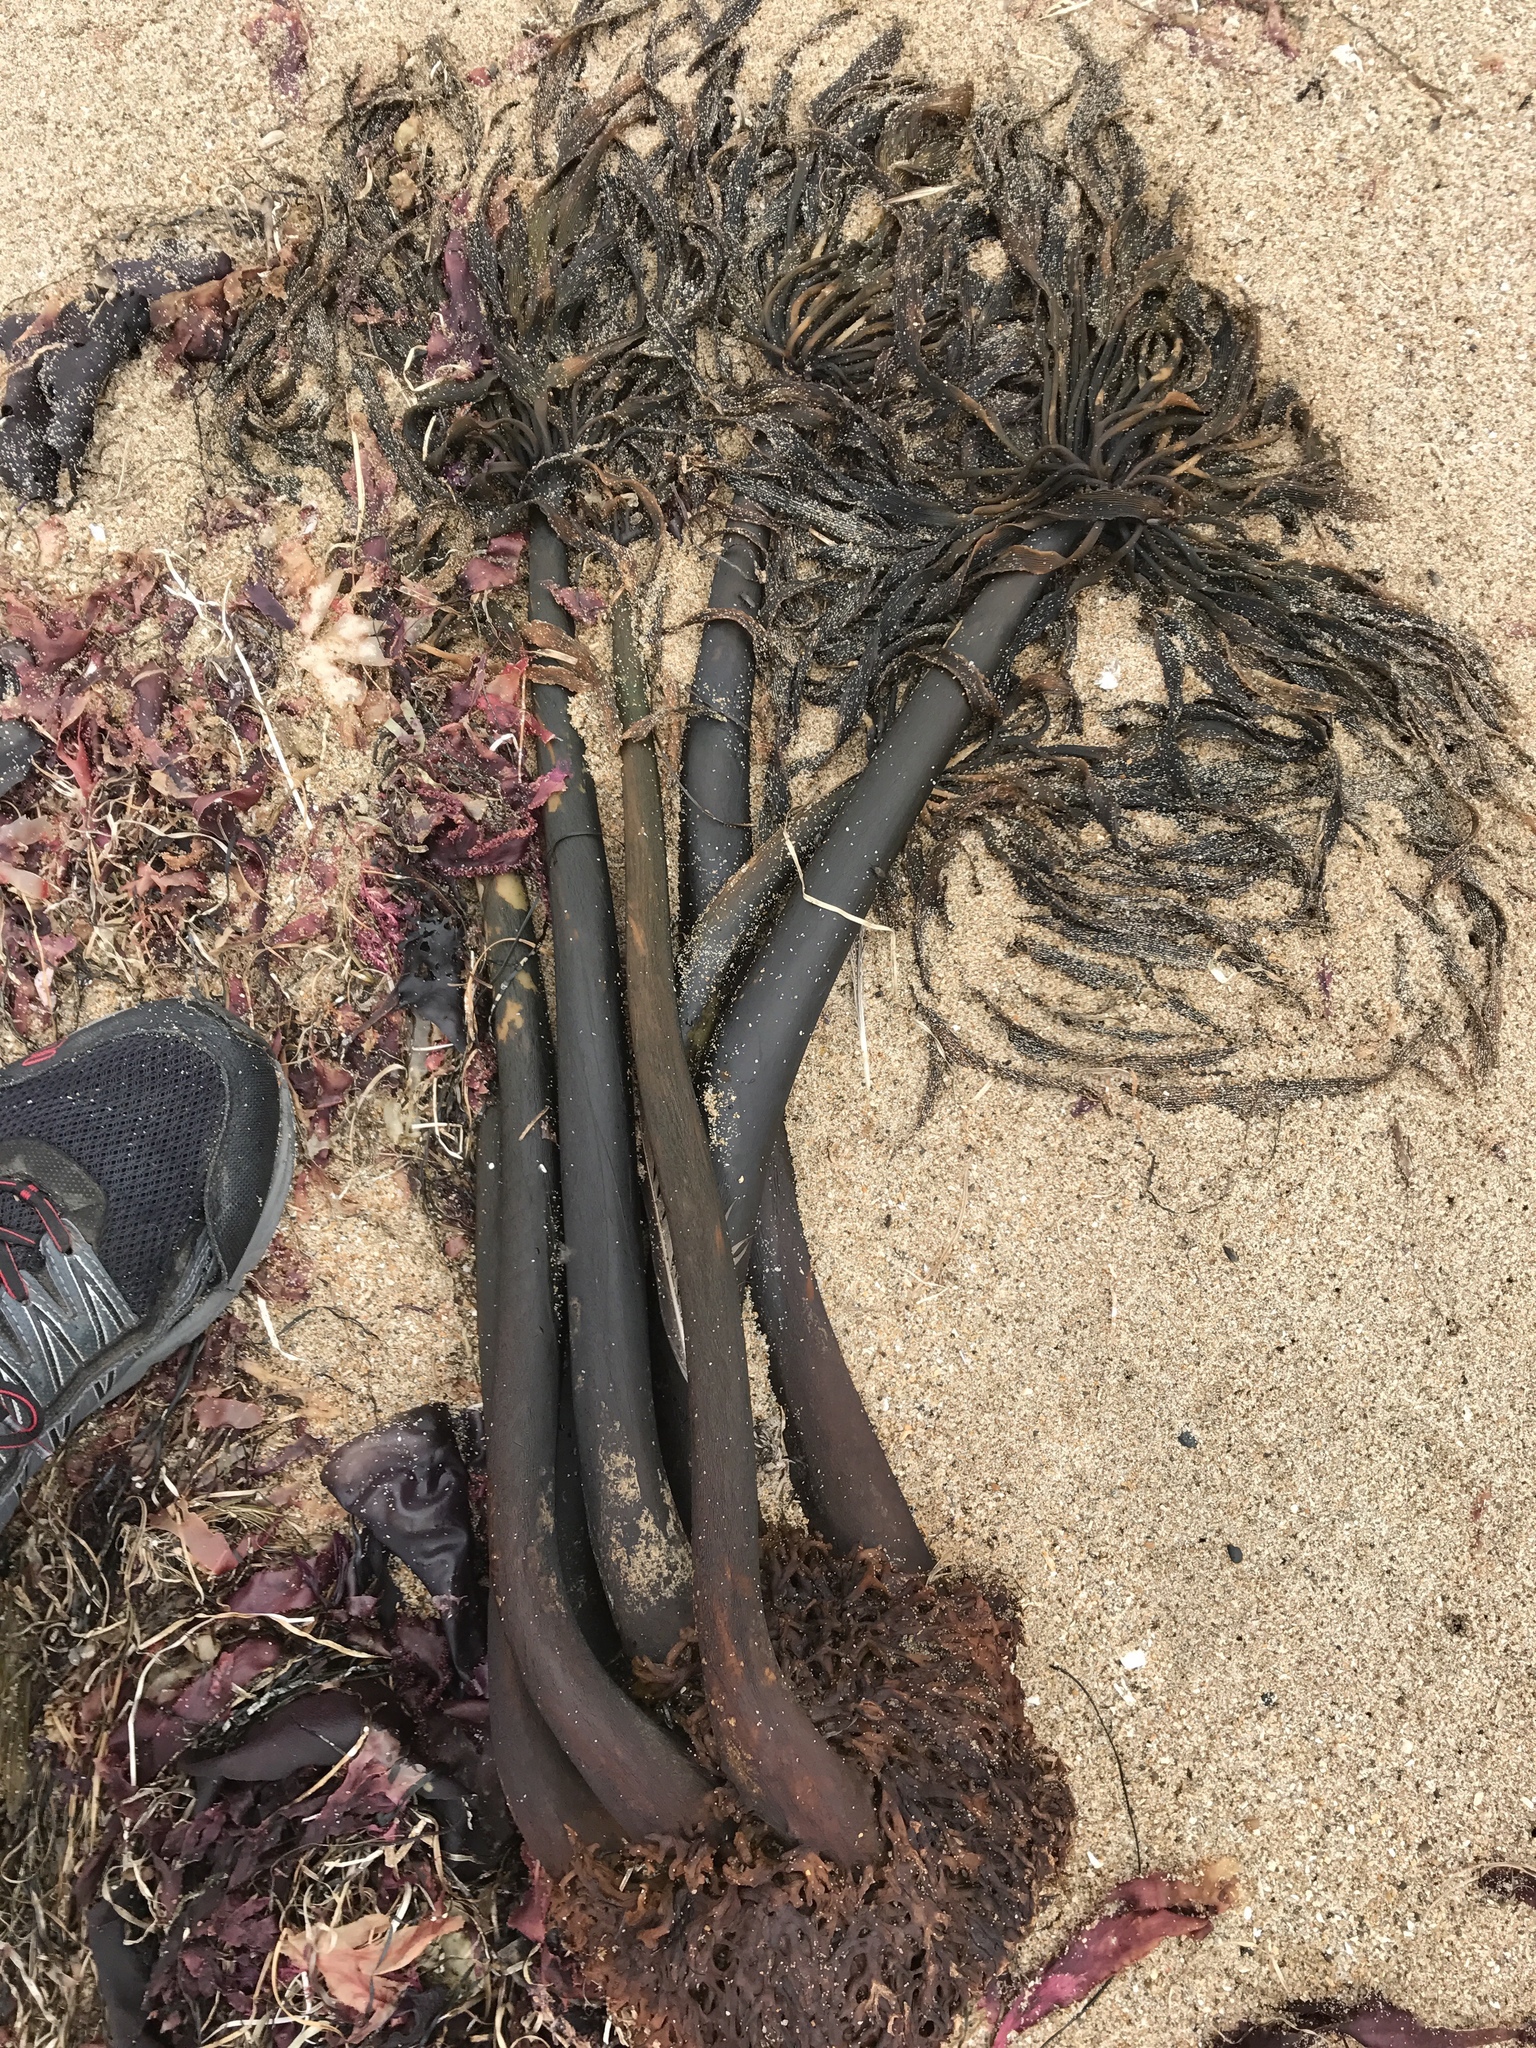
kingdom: Chromista
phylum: Ochrophyta
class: Phaeophyceae
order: Laminariales
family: Laminariaceae
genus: Postelsia
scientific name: Postelsia palmiformis
